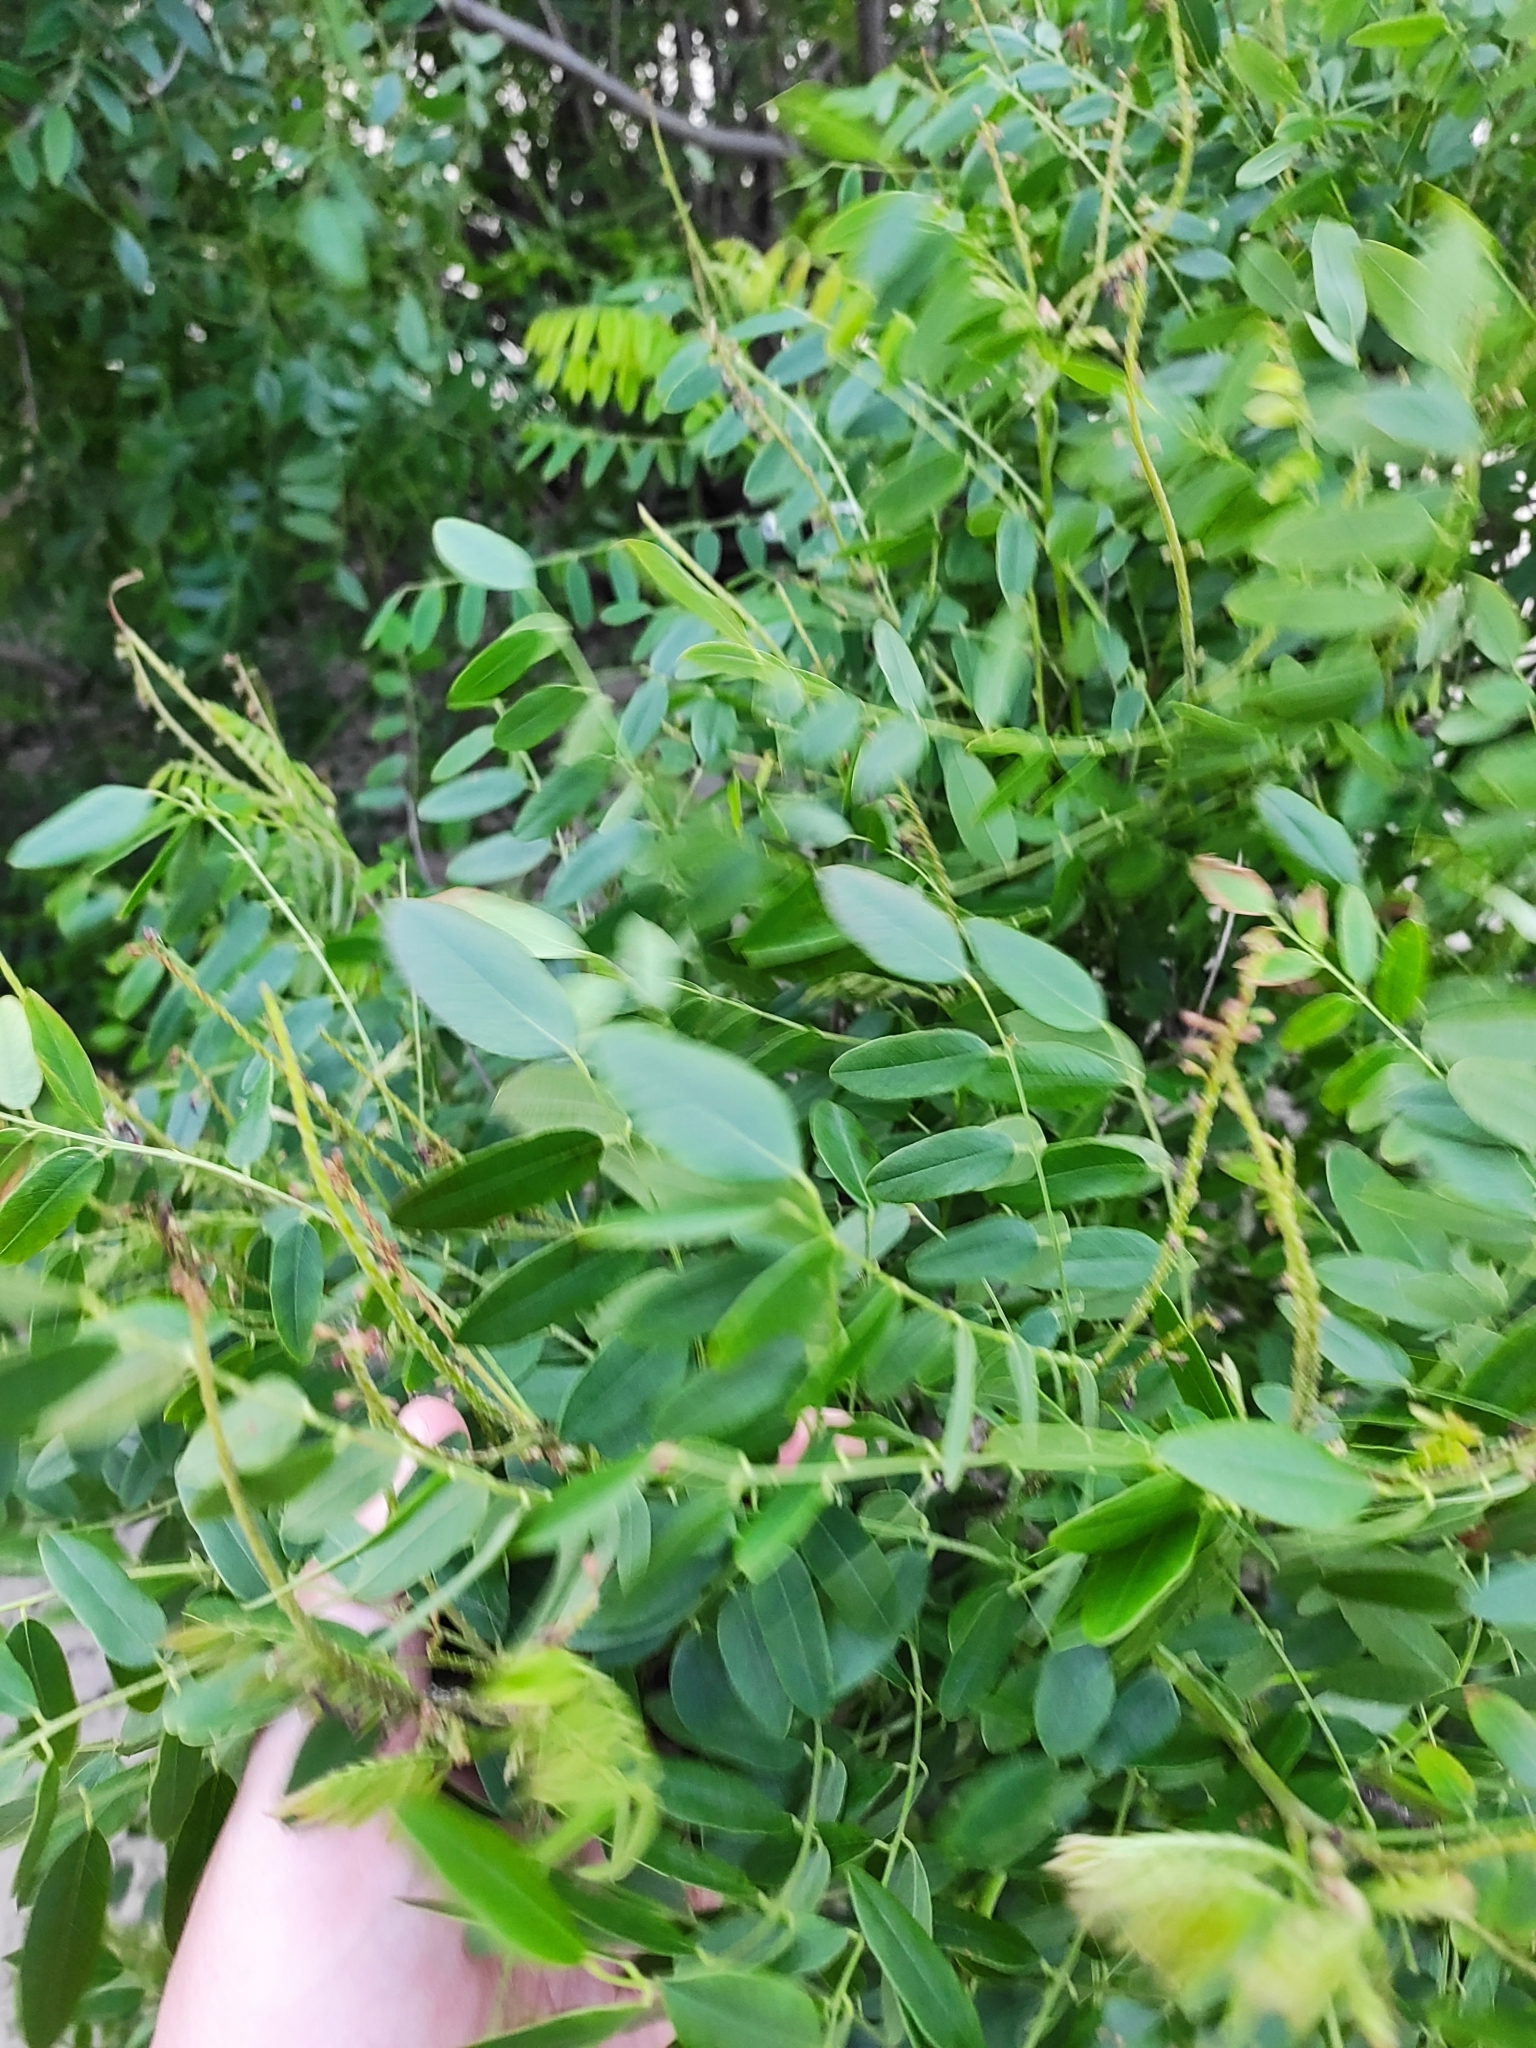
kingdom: Plantae
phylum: Tracheophyta
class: Magnoliopsida
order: Fabales
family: Fabaceae
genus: Amorpha
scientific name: Amorpha fruticosa
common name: False indigo
